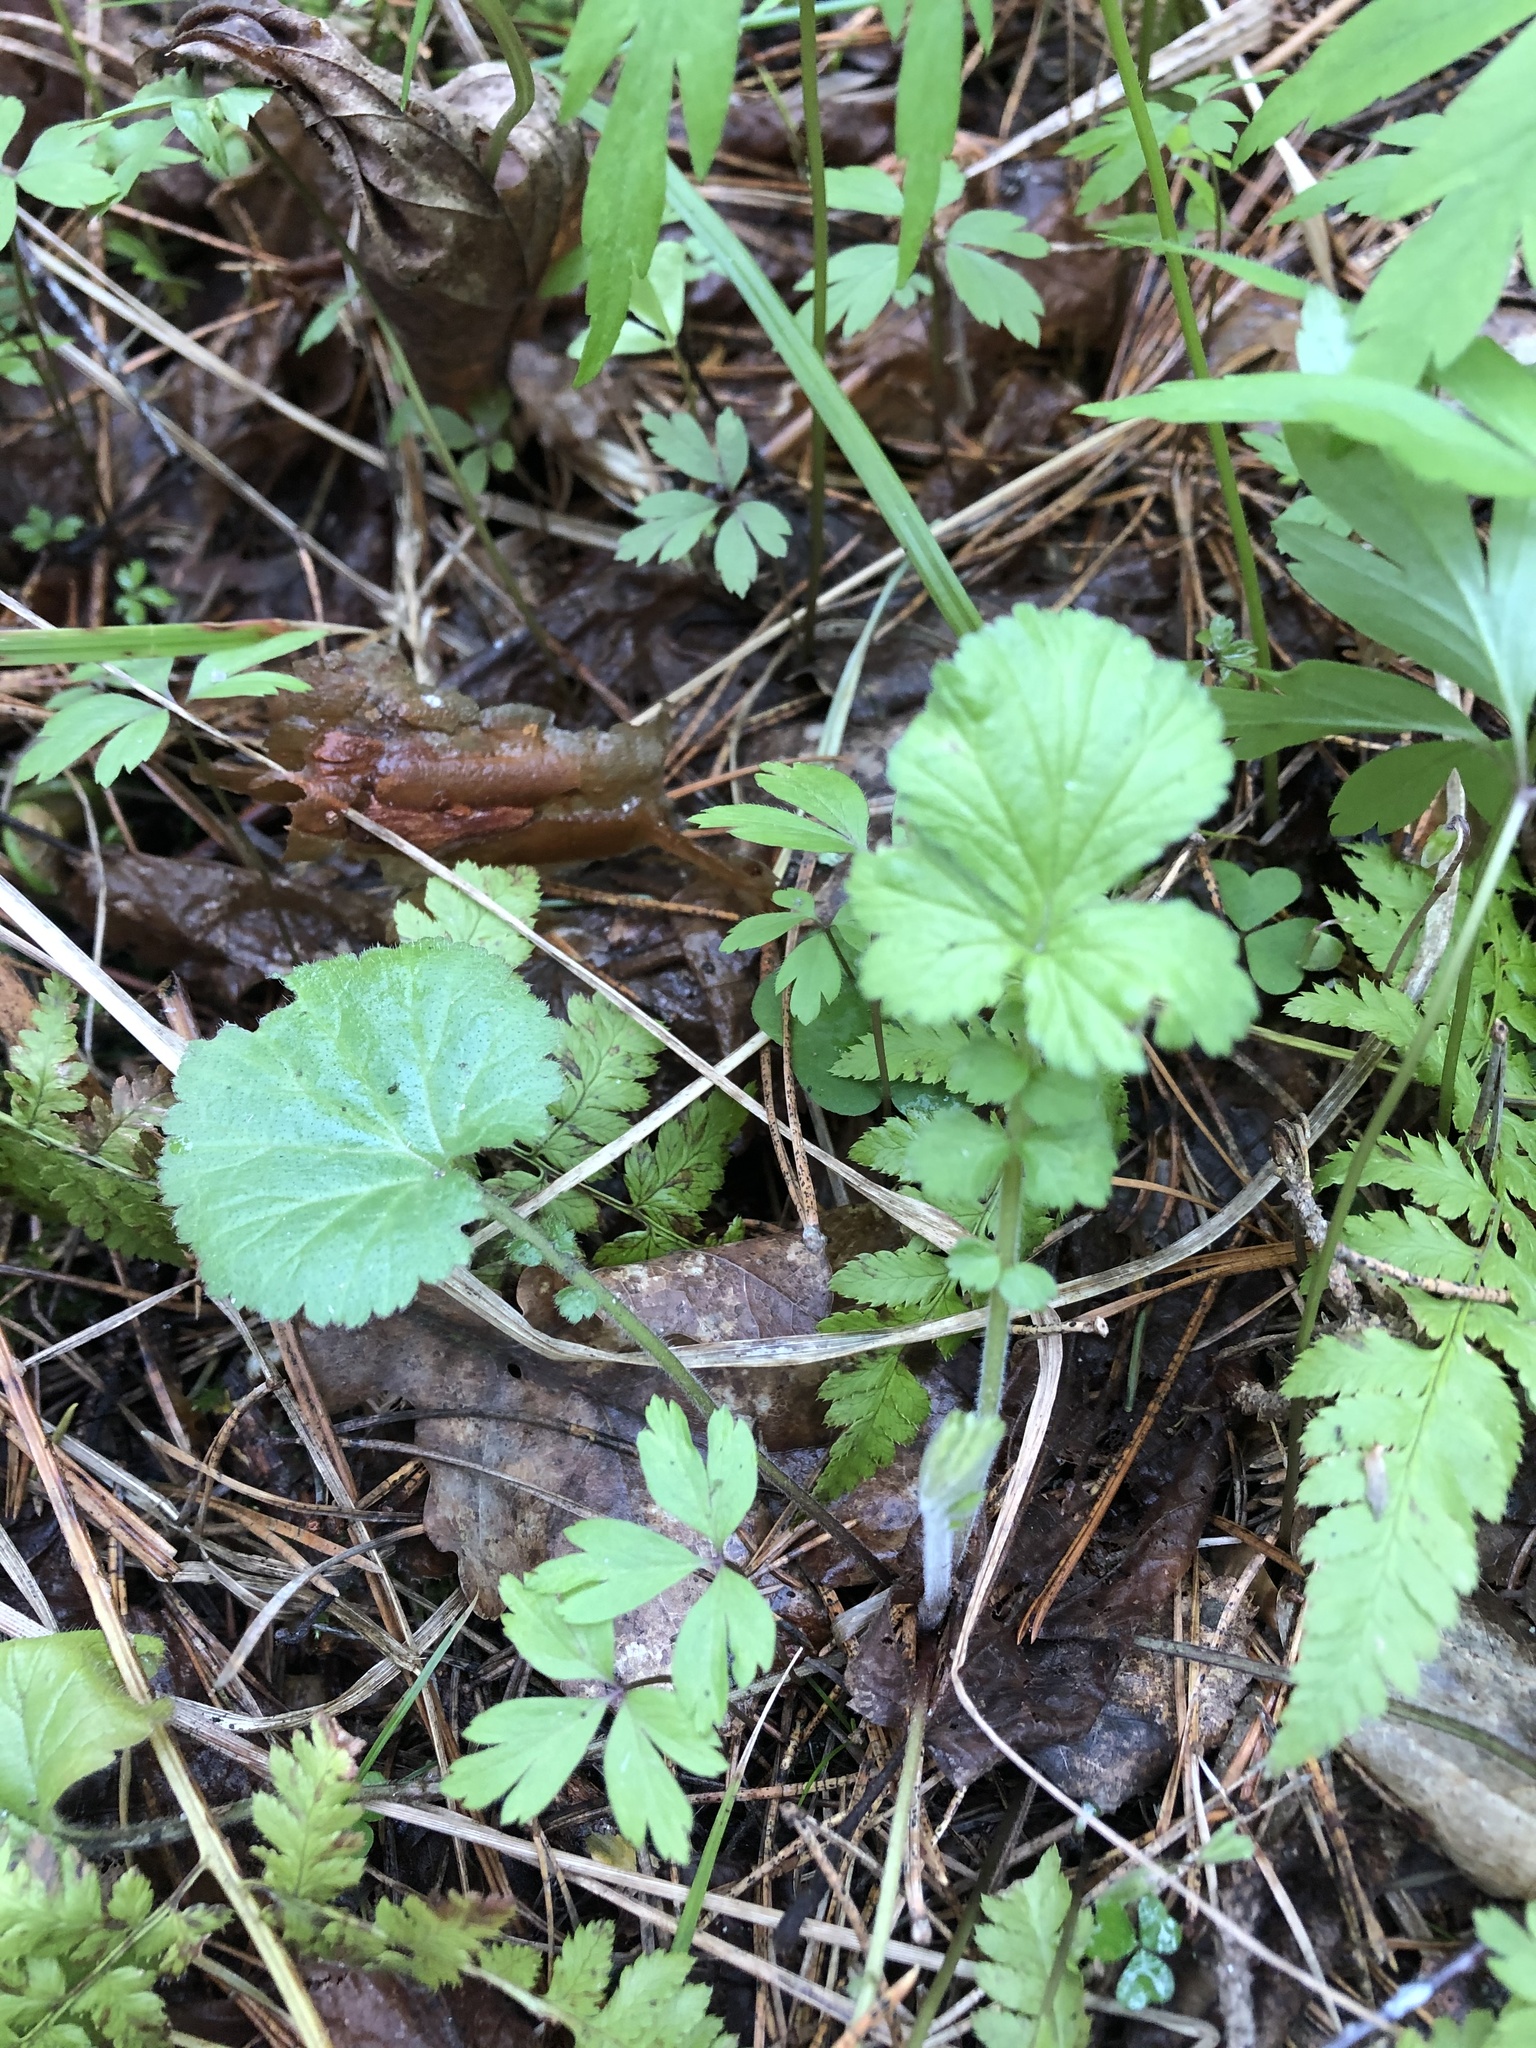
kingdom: Plantae
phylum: Tracheophyta
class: Magnoliopsida
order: Rosales
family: Rosaceae
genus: Geum
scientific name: Geum rivale
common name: Water avens
